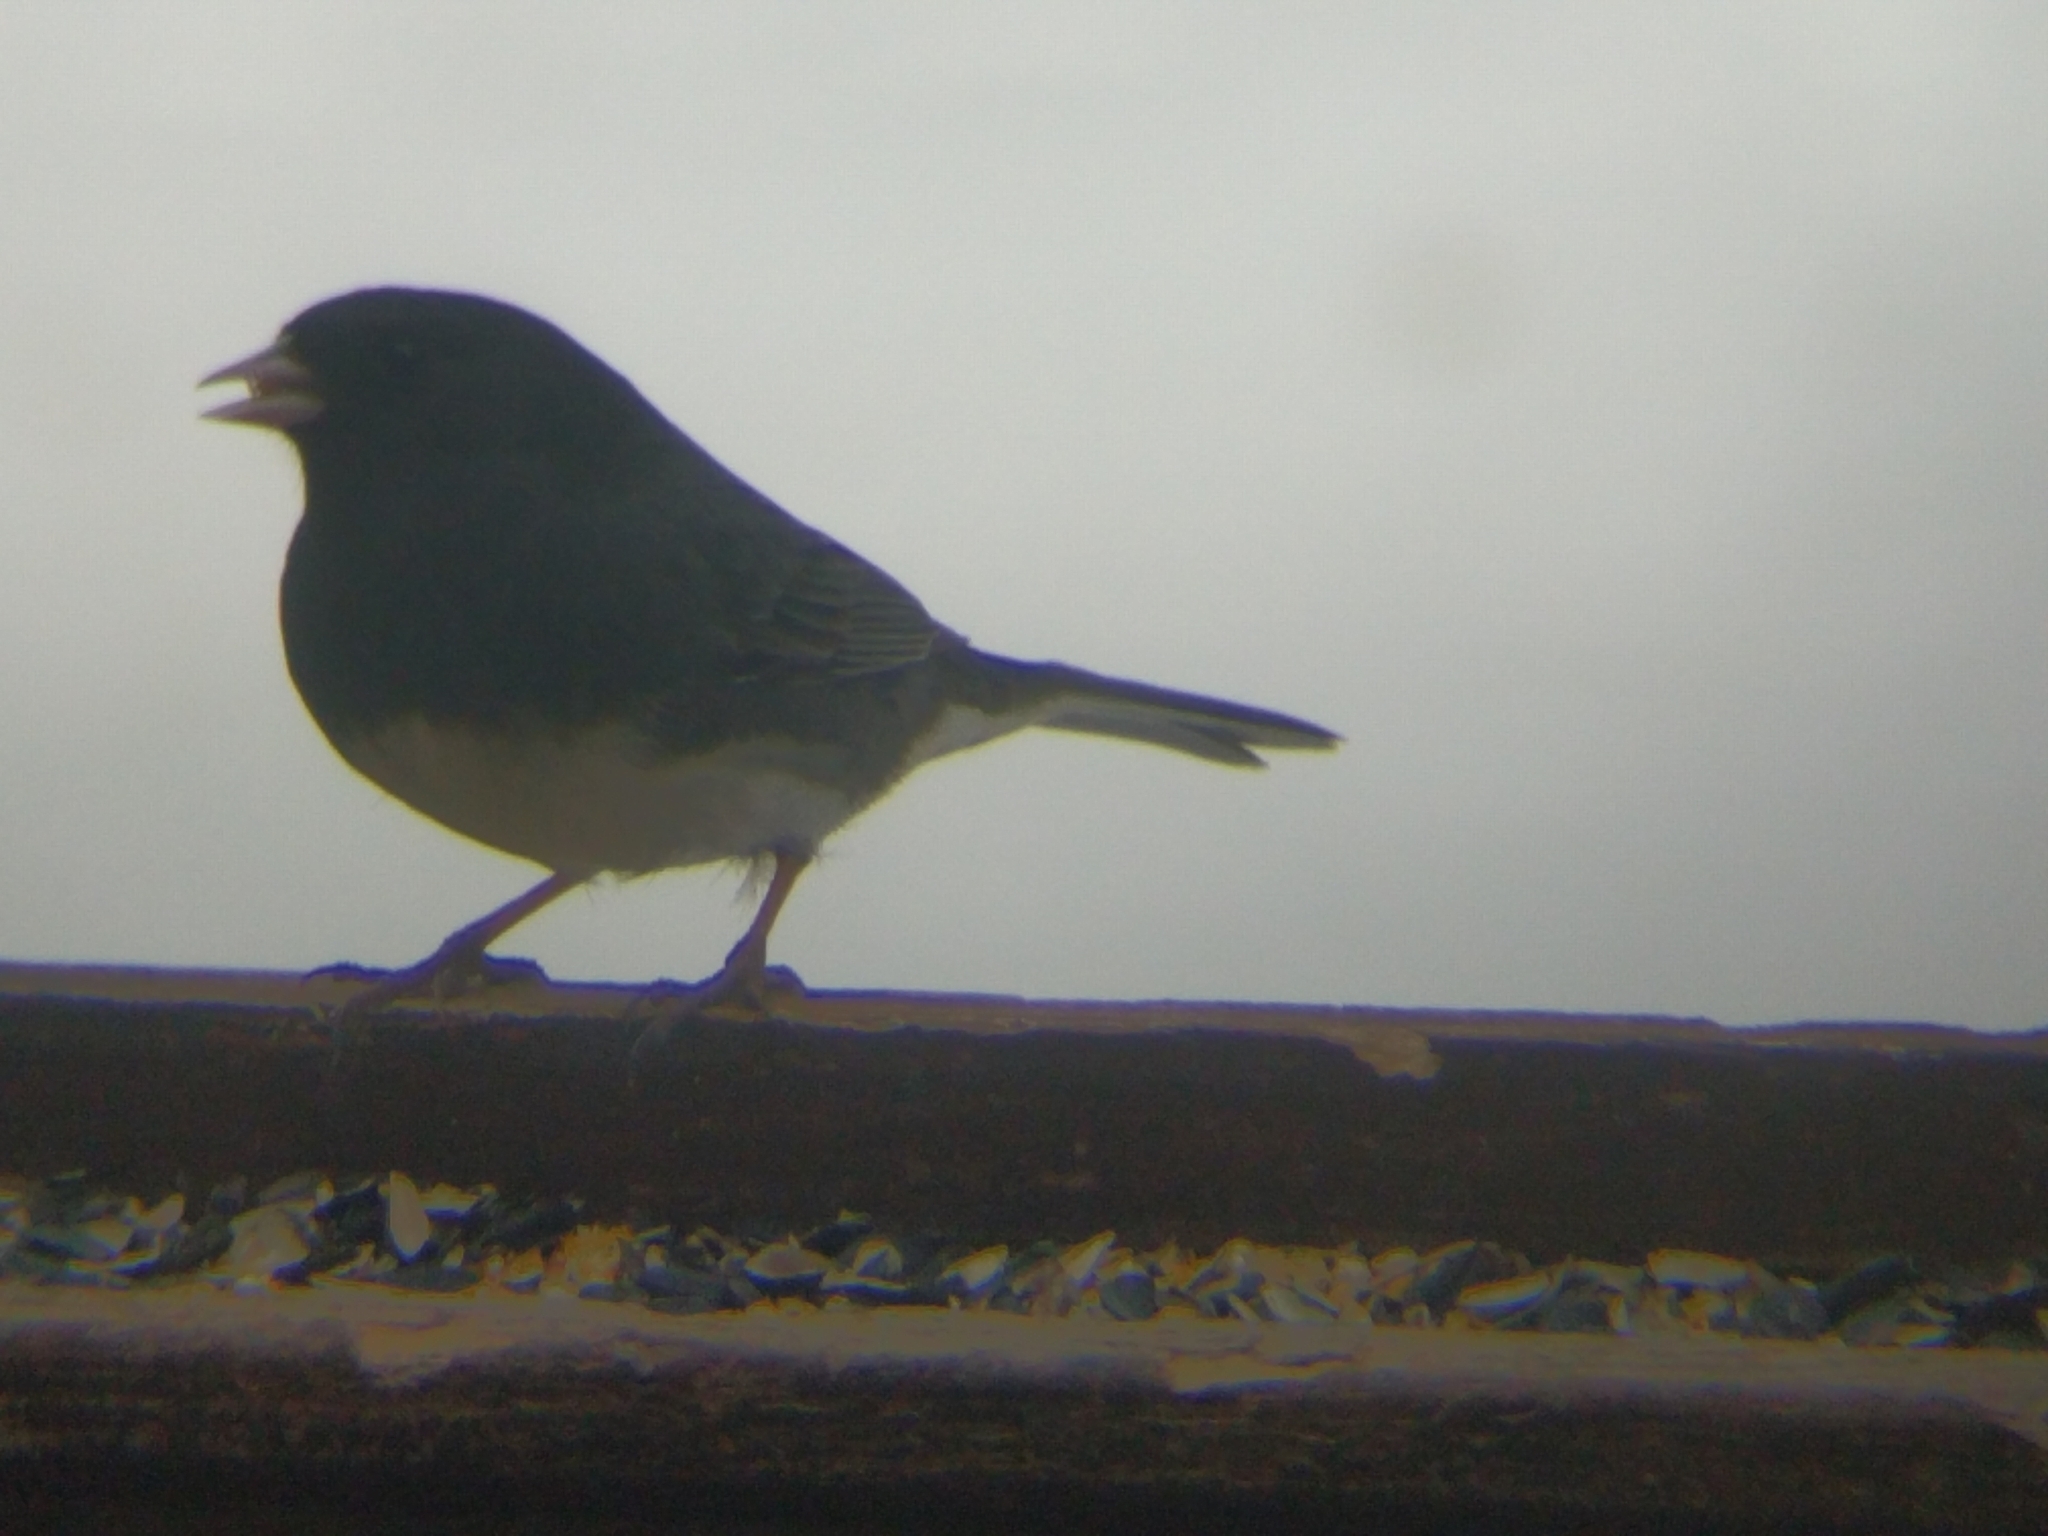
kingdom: Animalia
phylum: Chordata
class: Aves
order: Passeriformes
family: Passerellidae
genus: Junco
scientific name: Junco hyemalis
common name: Dark-eyed junco
